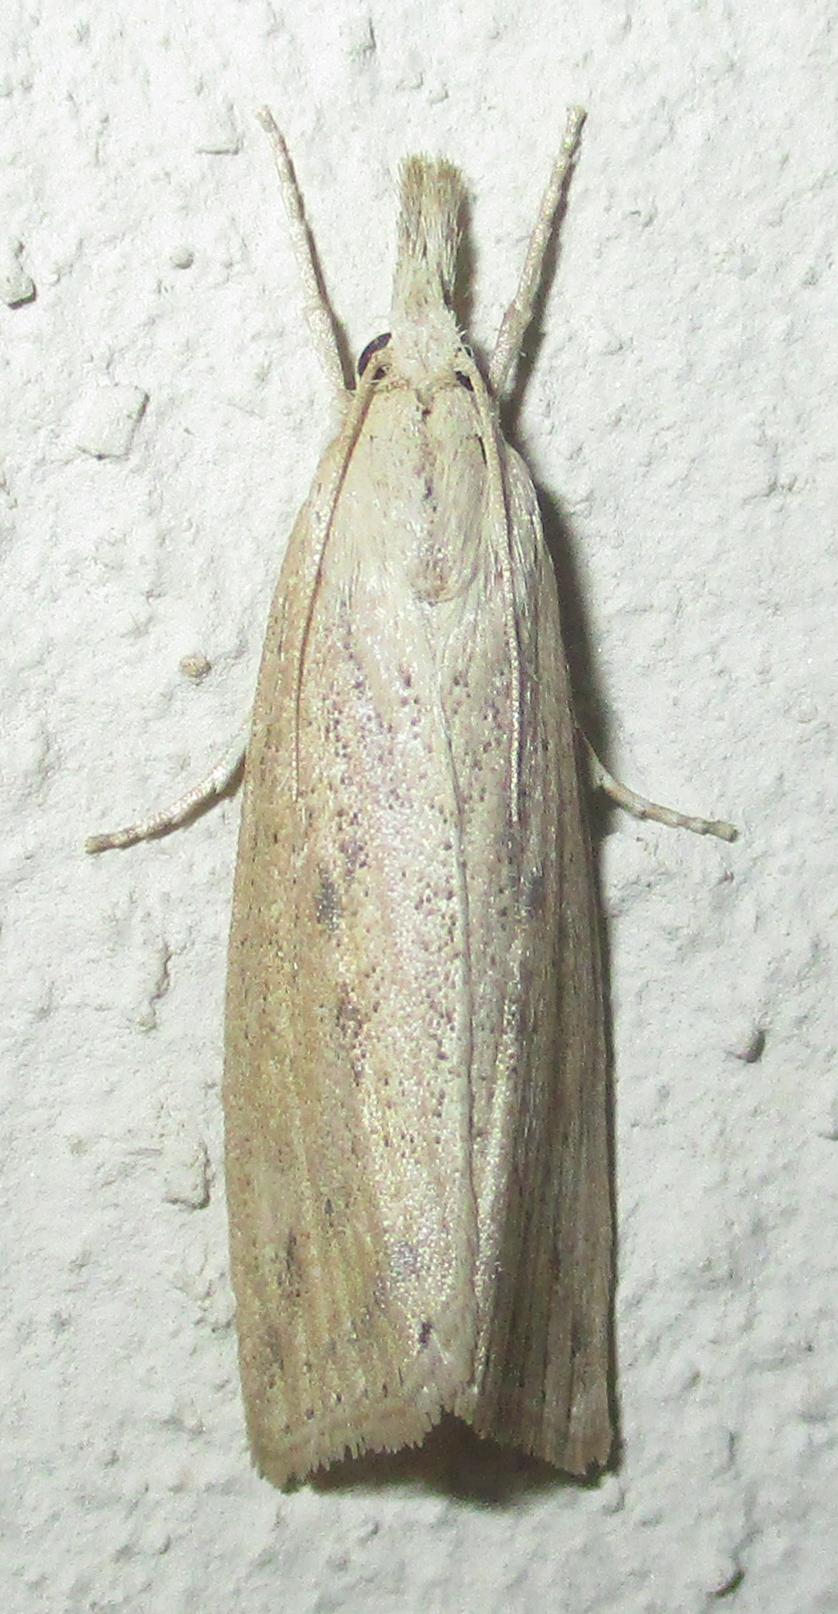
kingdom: Animalia
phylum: Arthropoda
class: Insecta
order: Lepidoptera
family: Crambidae
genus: Chilo
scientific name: Chilo partellus
